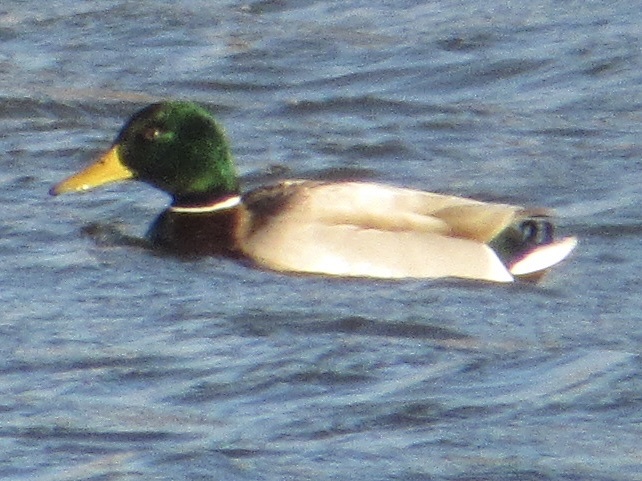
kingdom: Animalia
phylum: Chordata
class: Aves
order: Anseriformes
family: Anatidae
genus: Anas
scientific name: Anas platyrhynchos
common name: Mallard
